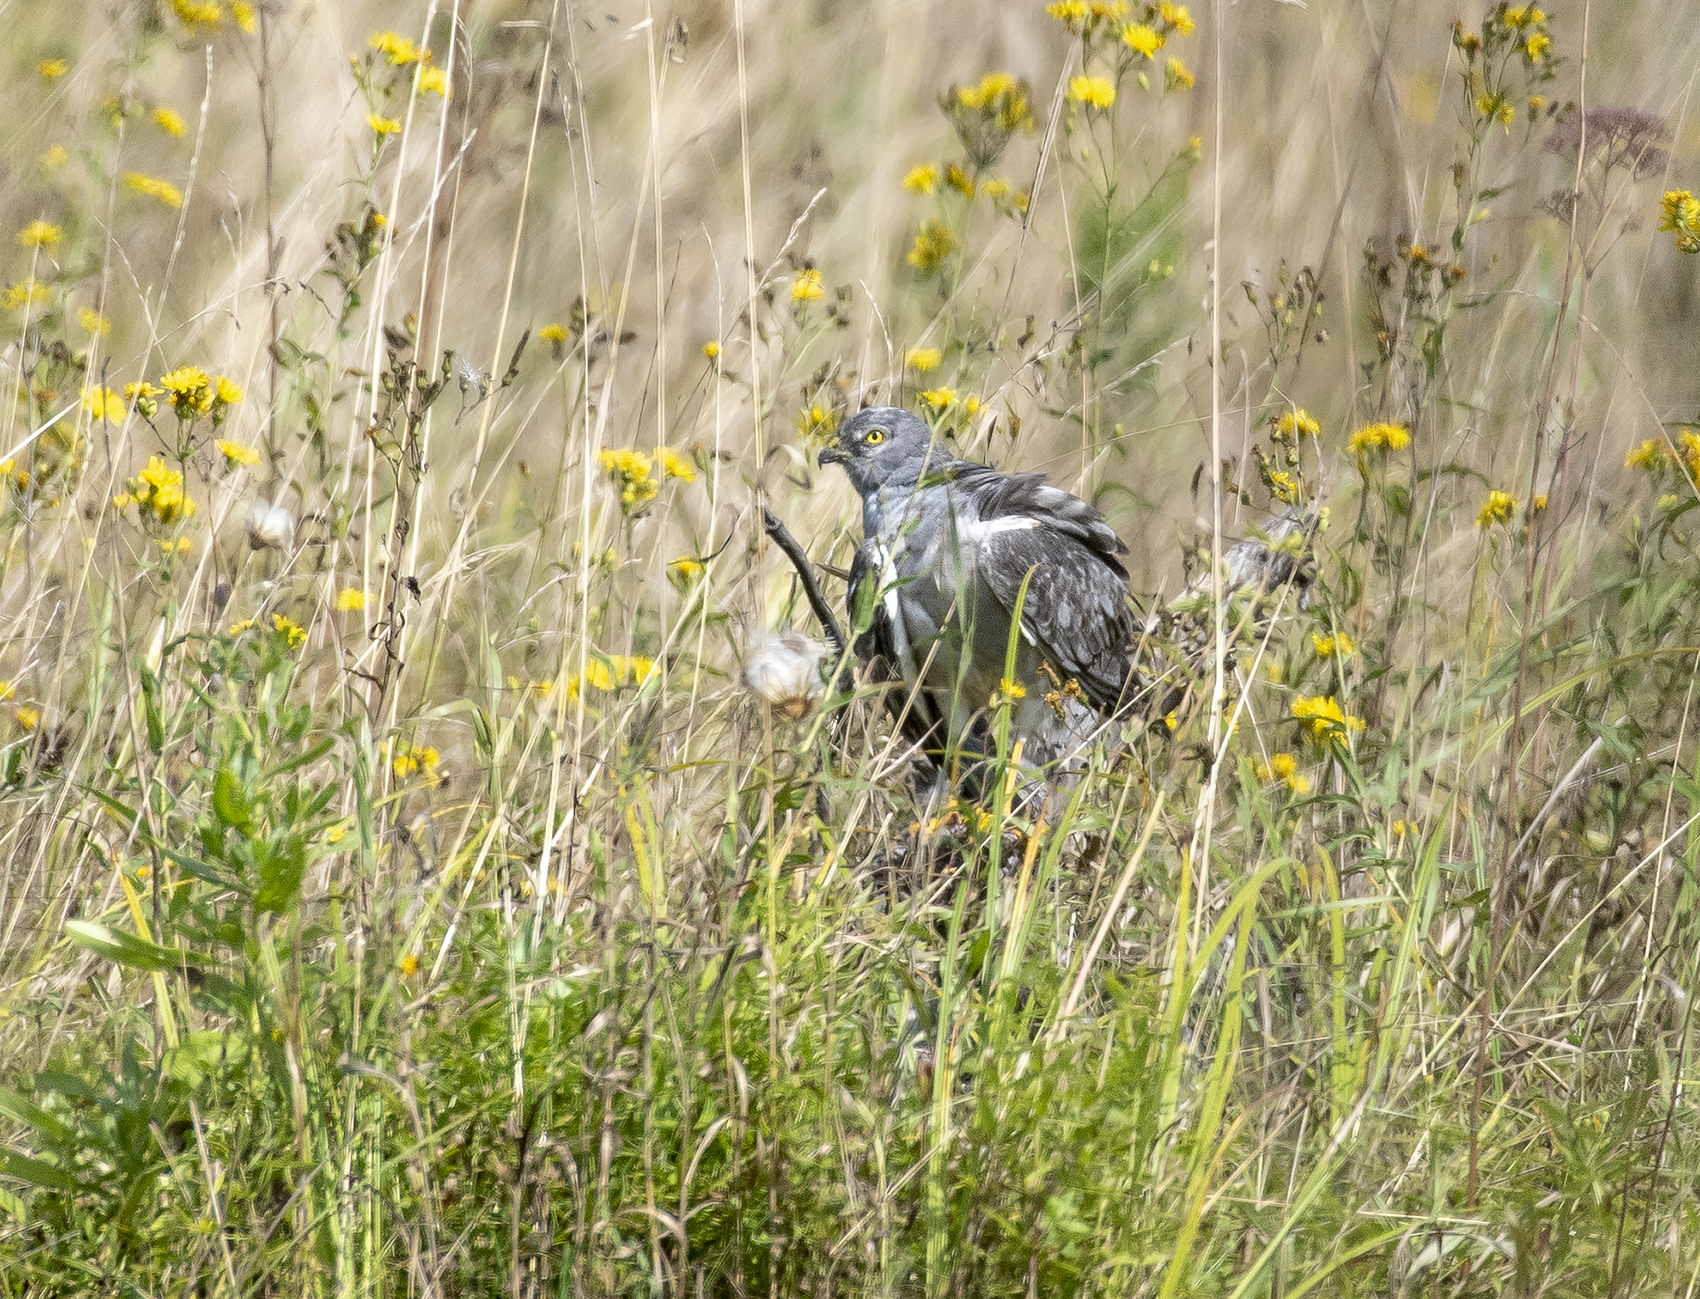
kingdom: Animalia
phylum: Chordata
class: Aves
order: Accipitriformes
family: Accipitridae
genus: Circus
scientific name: Circus pygargus
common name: Montagu's harrier
